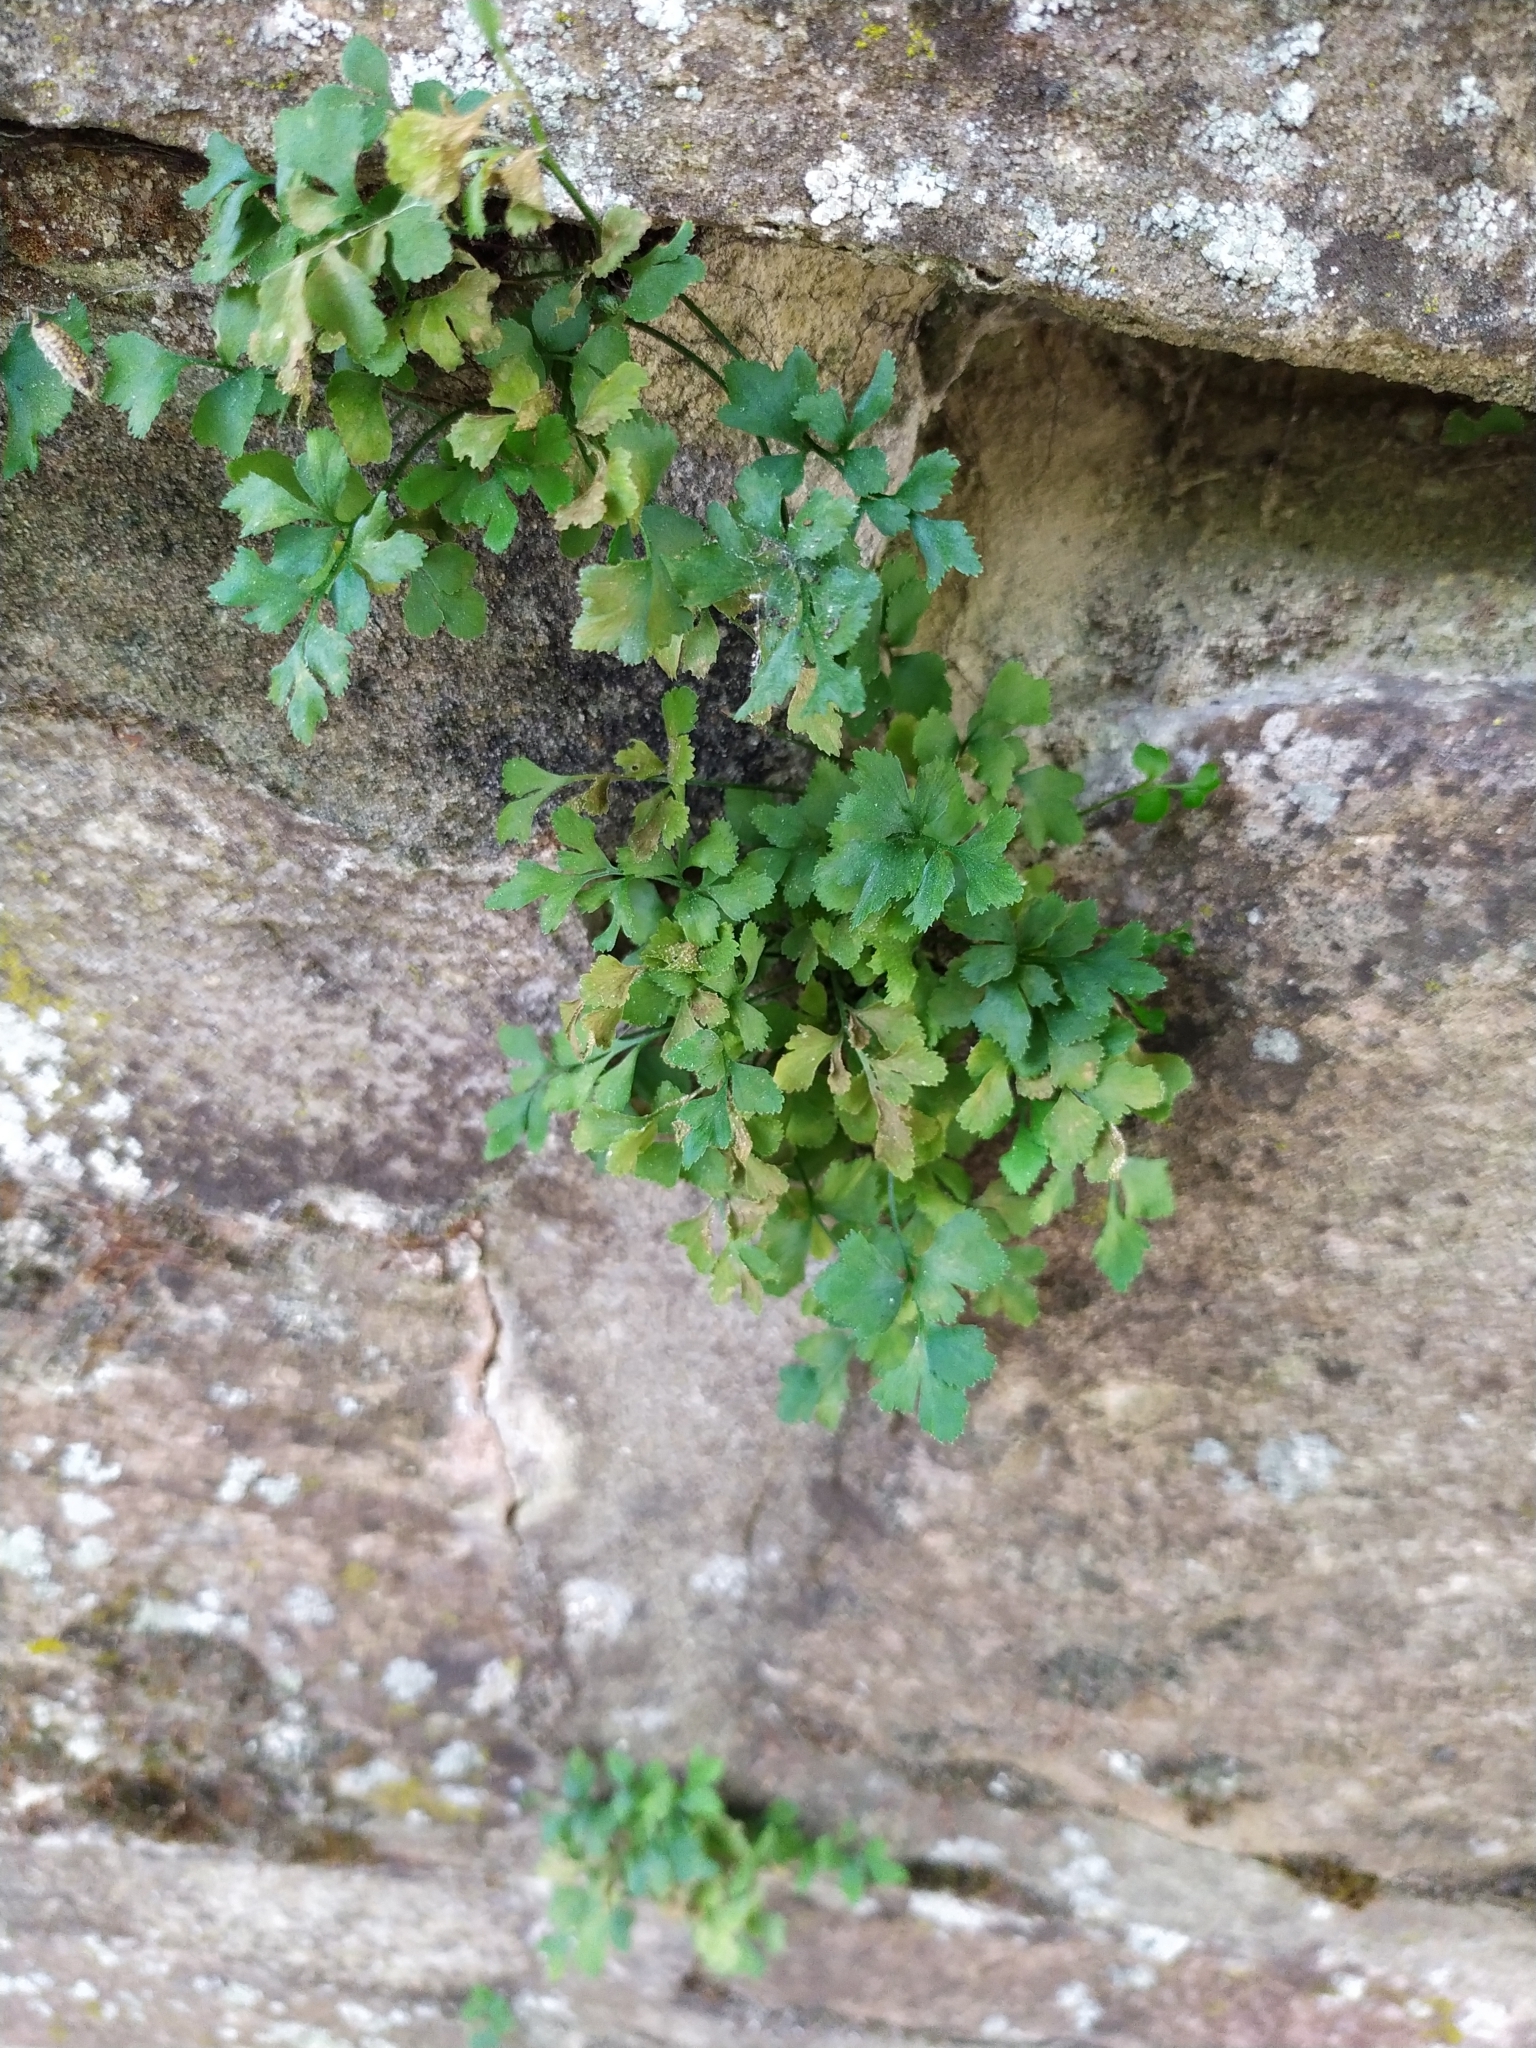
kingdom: Plantae
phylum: Tracheophyta
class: Polypodiopsida
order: Polypodiales
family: Aspleniaceae
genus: Asplenium
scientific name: Asplenium ruta-muraria
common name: Wall-rue
